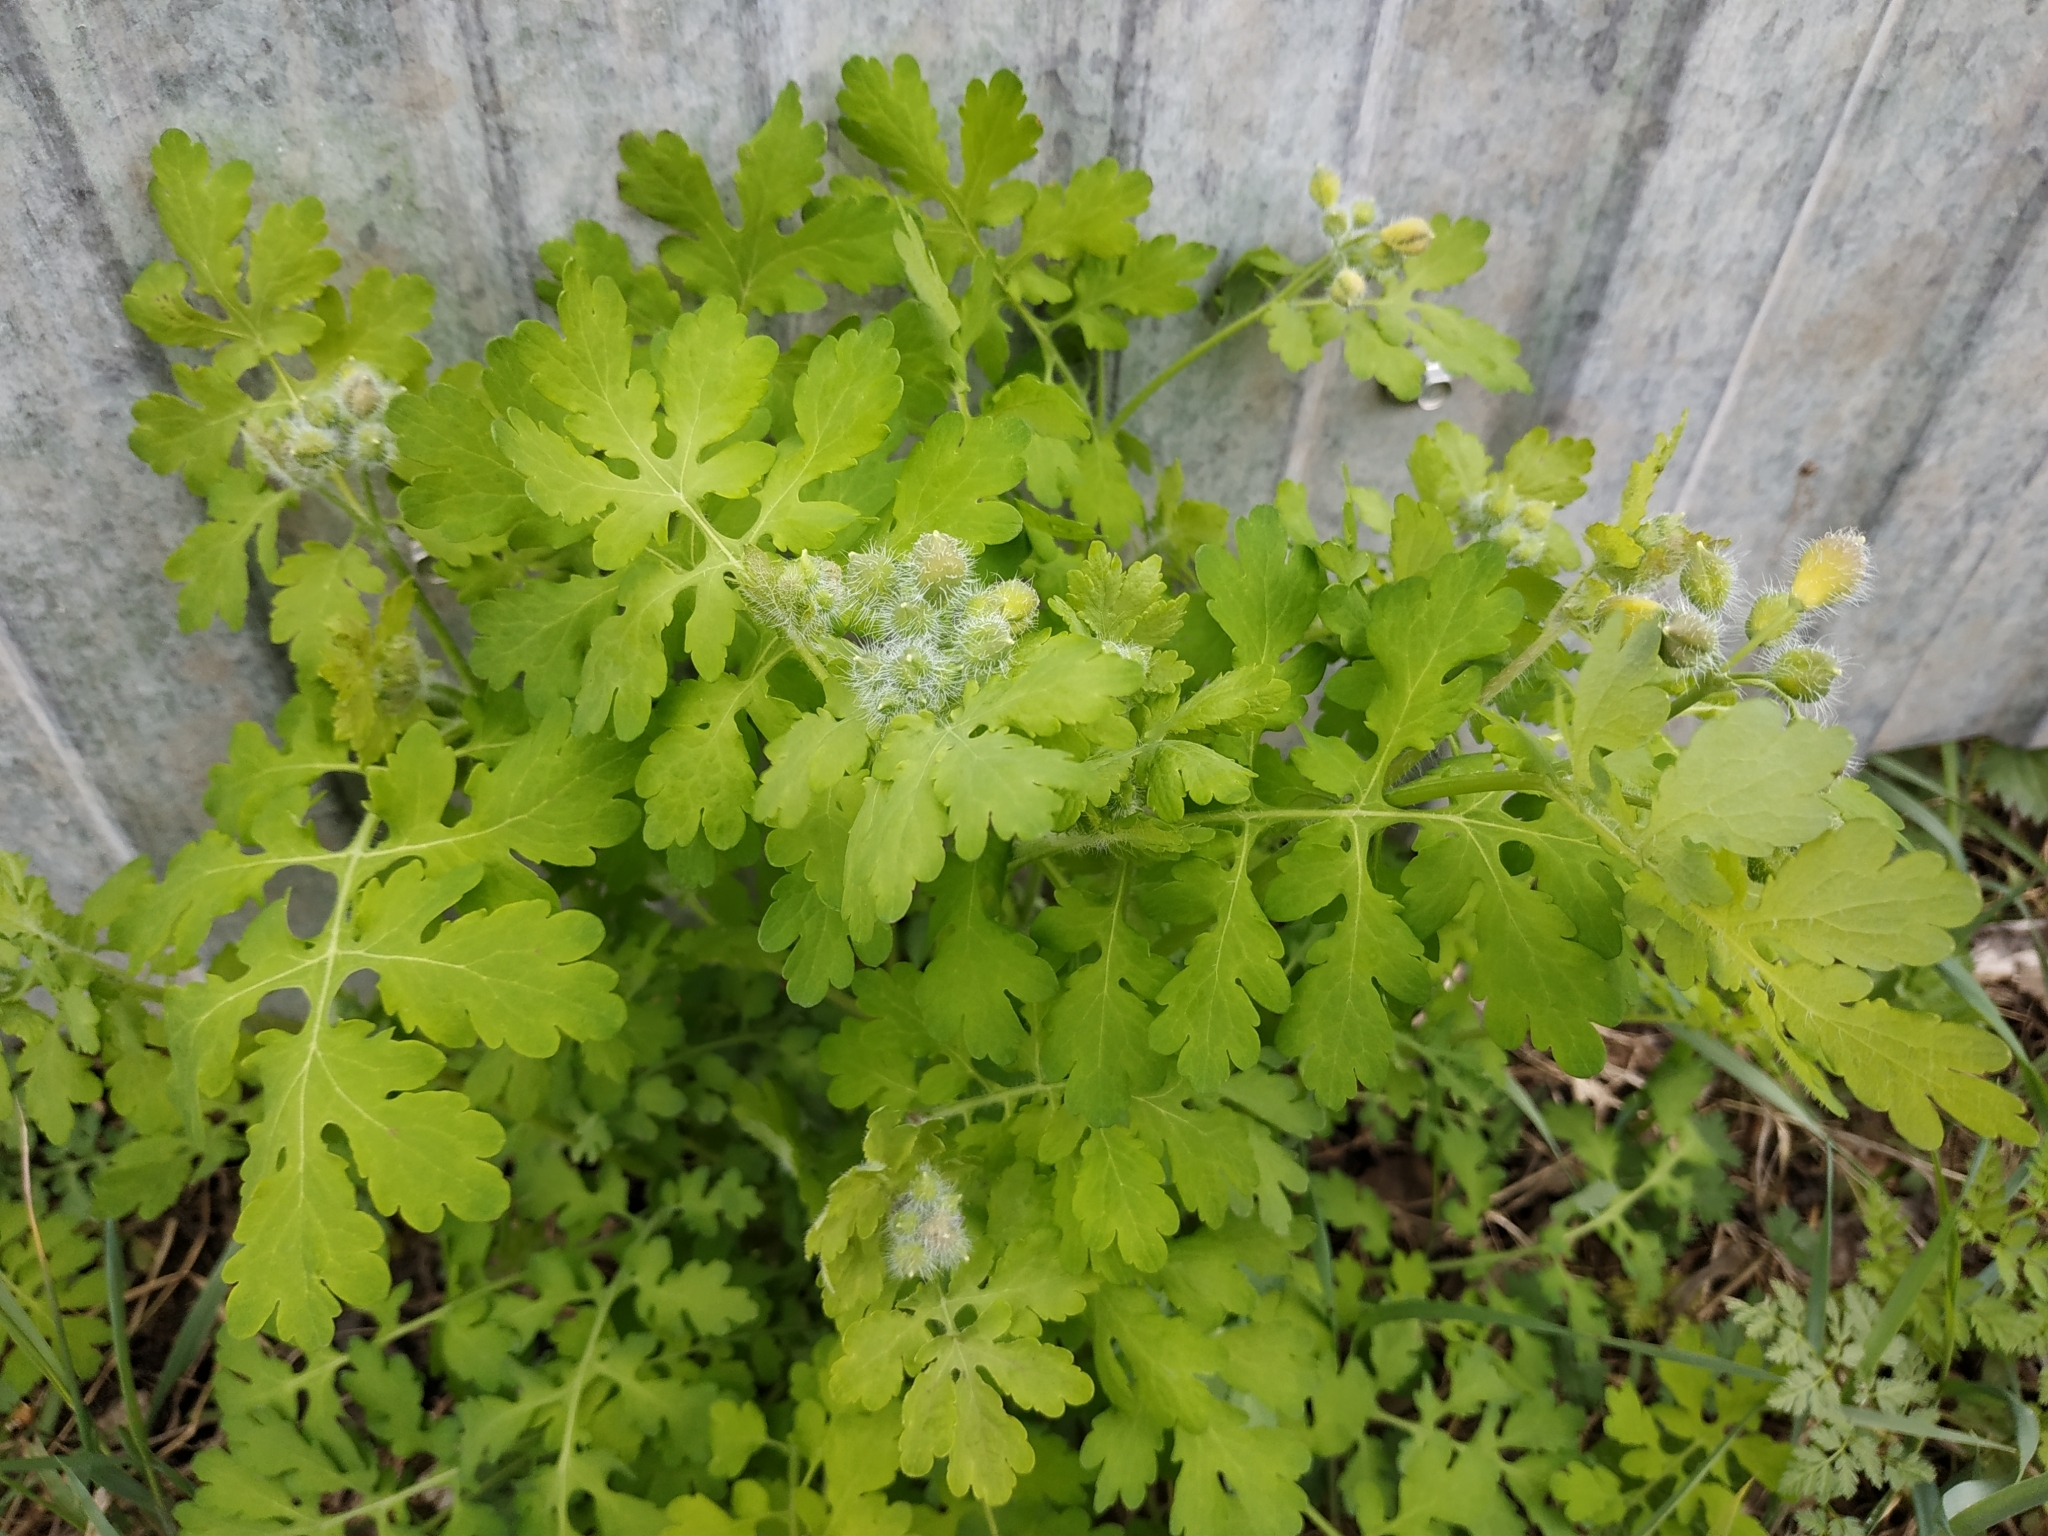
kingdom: Plantae
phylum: Tracheophyta
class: Magnoliopsida
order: Ranunculales
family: Papaveraceae
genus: Chelidonium
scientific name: Chelidonium majus
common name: Greater celandine
